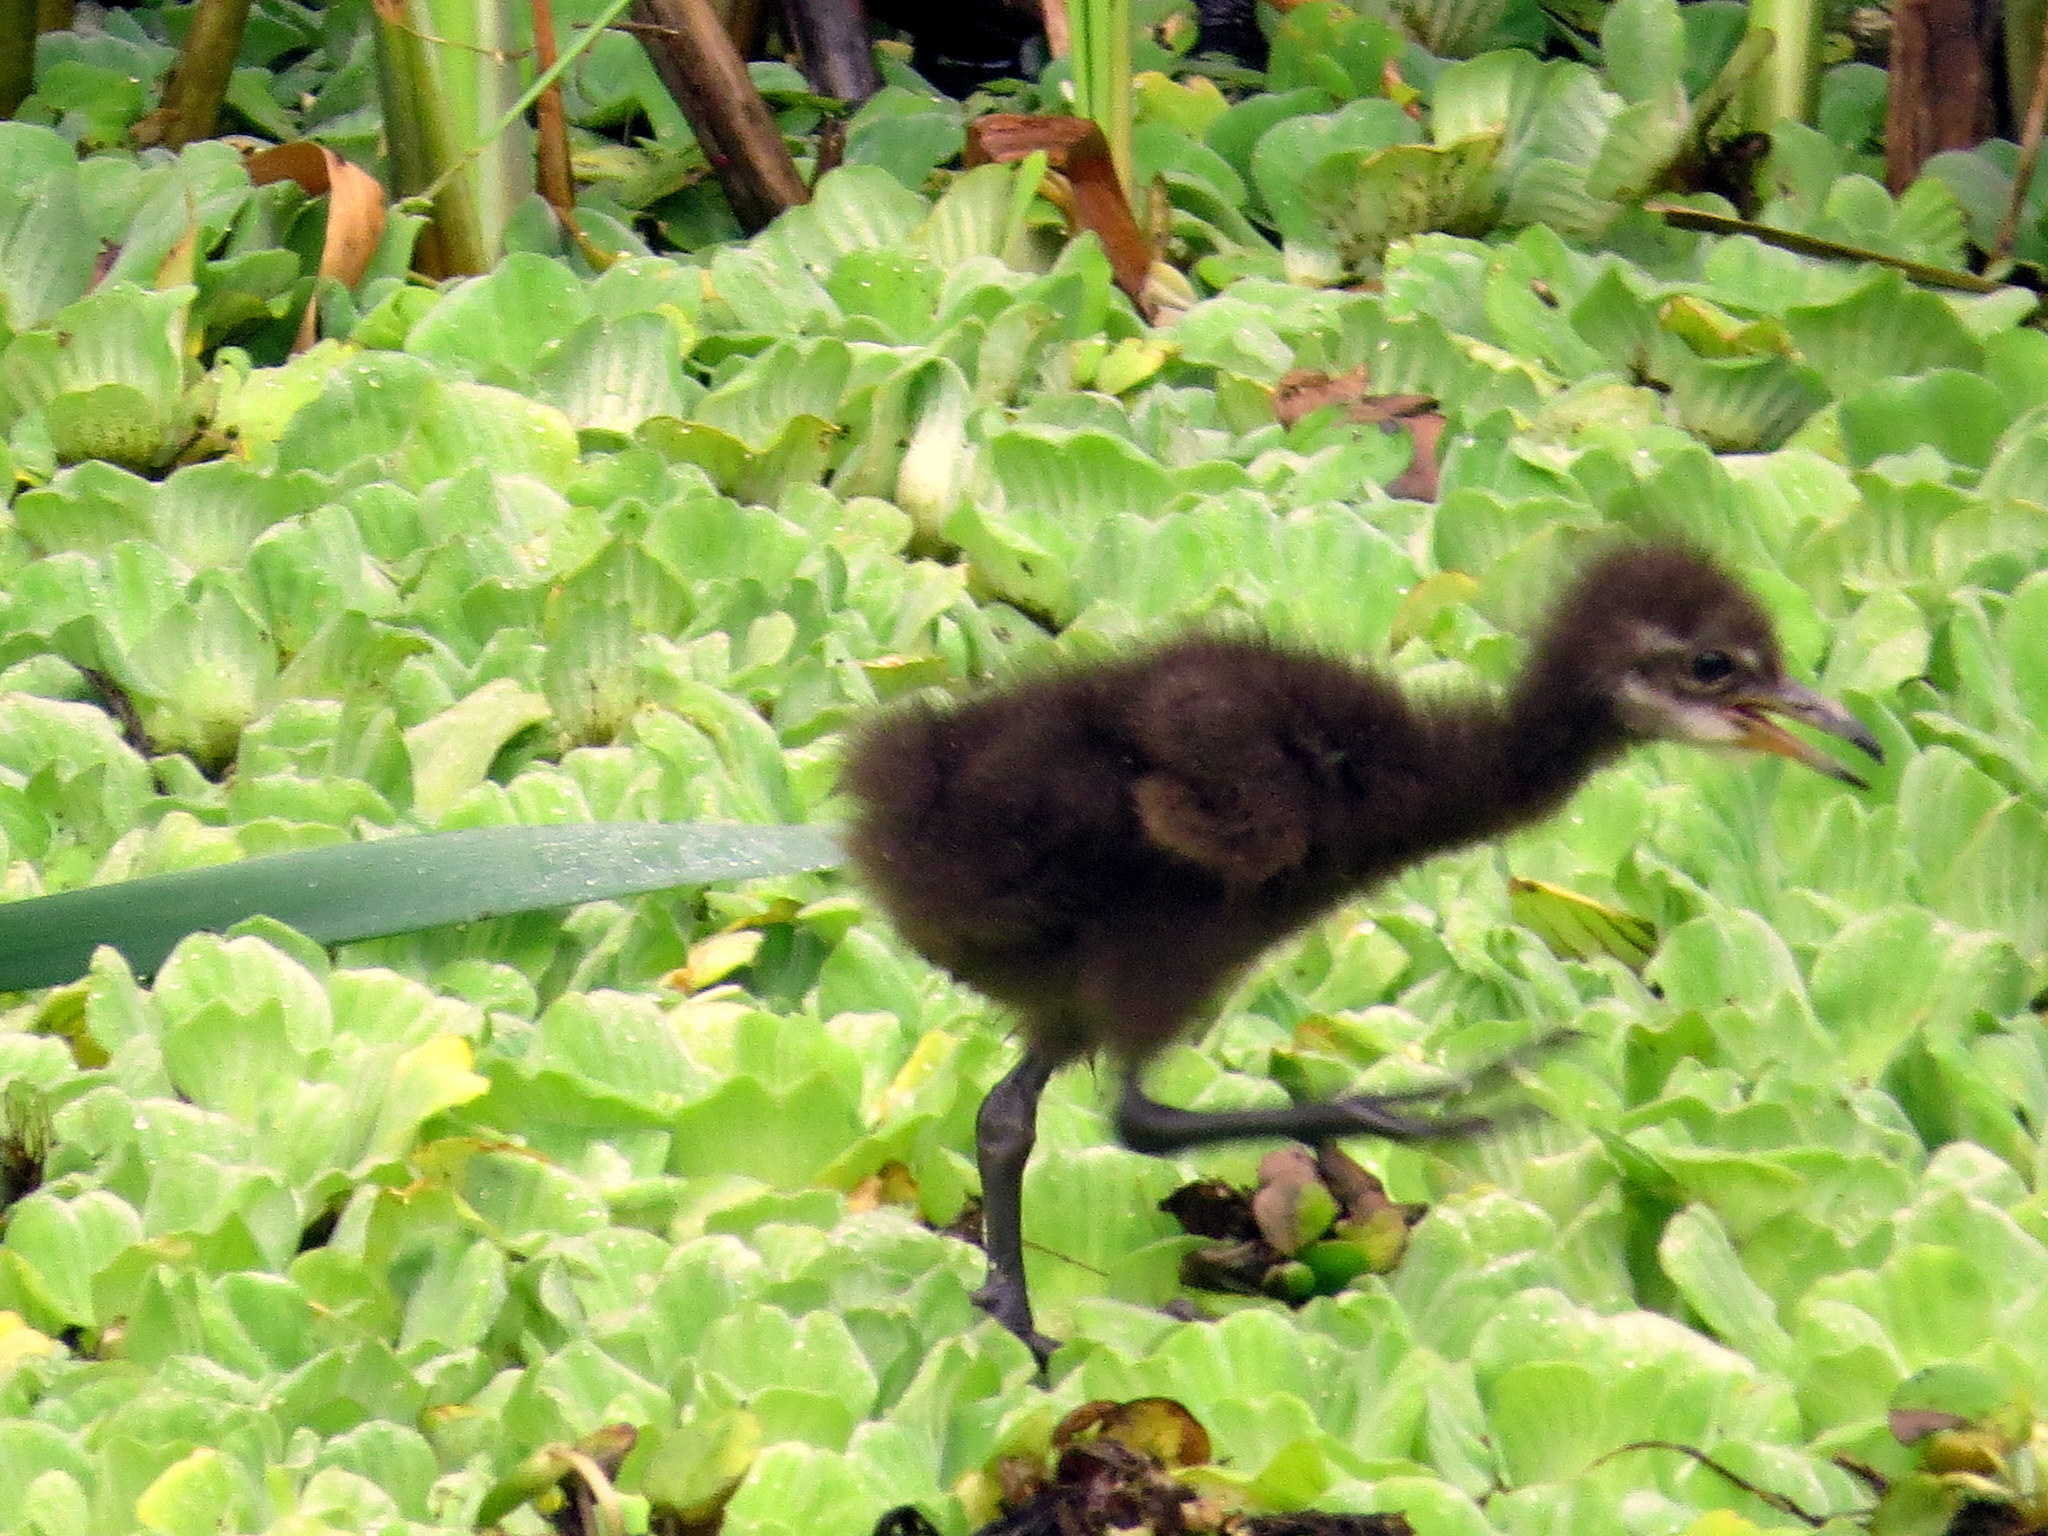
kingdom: Animalia
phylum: Chordata
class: Aves
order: Gruiformes
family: Aramidae
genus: Aramus
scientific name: Aramus guarauna
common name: Limpkin
